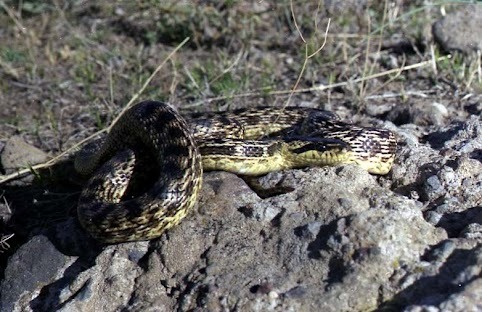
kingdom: Animalia
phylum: Chordata
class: Squamata
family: Colubridae
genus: Elaphe
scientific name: Elaphe urartica
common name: Urartian rat snake
